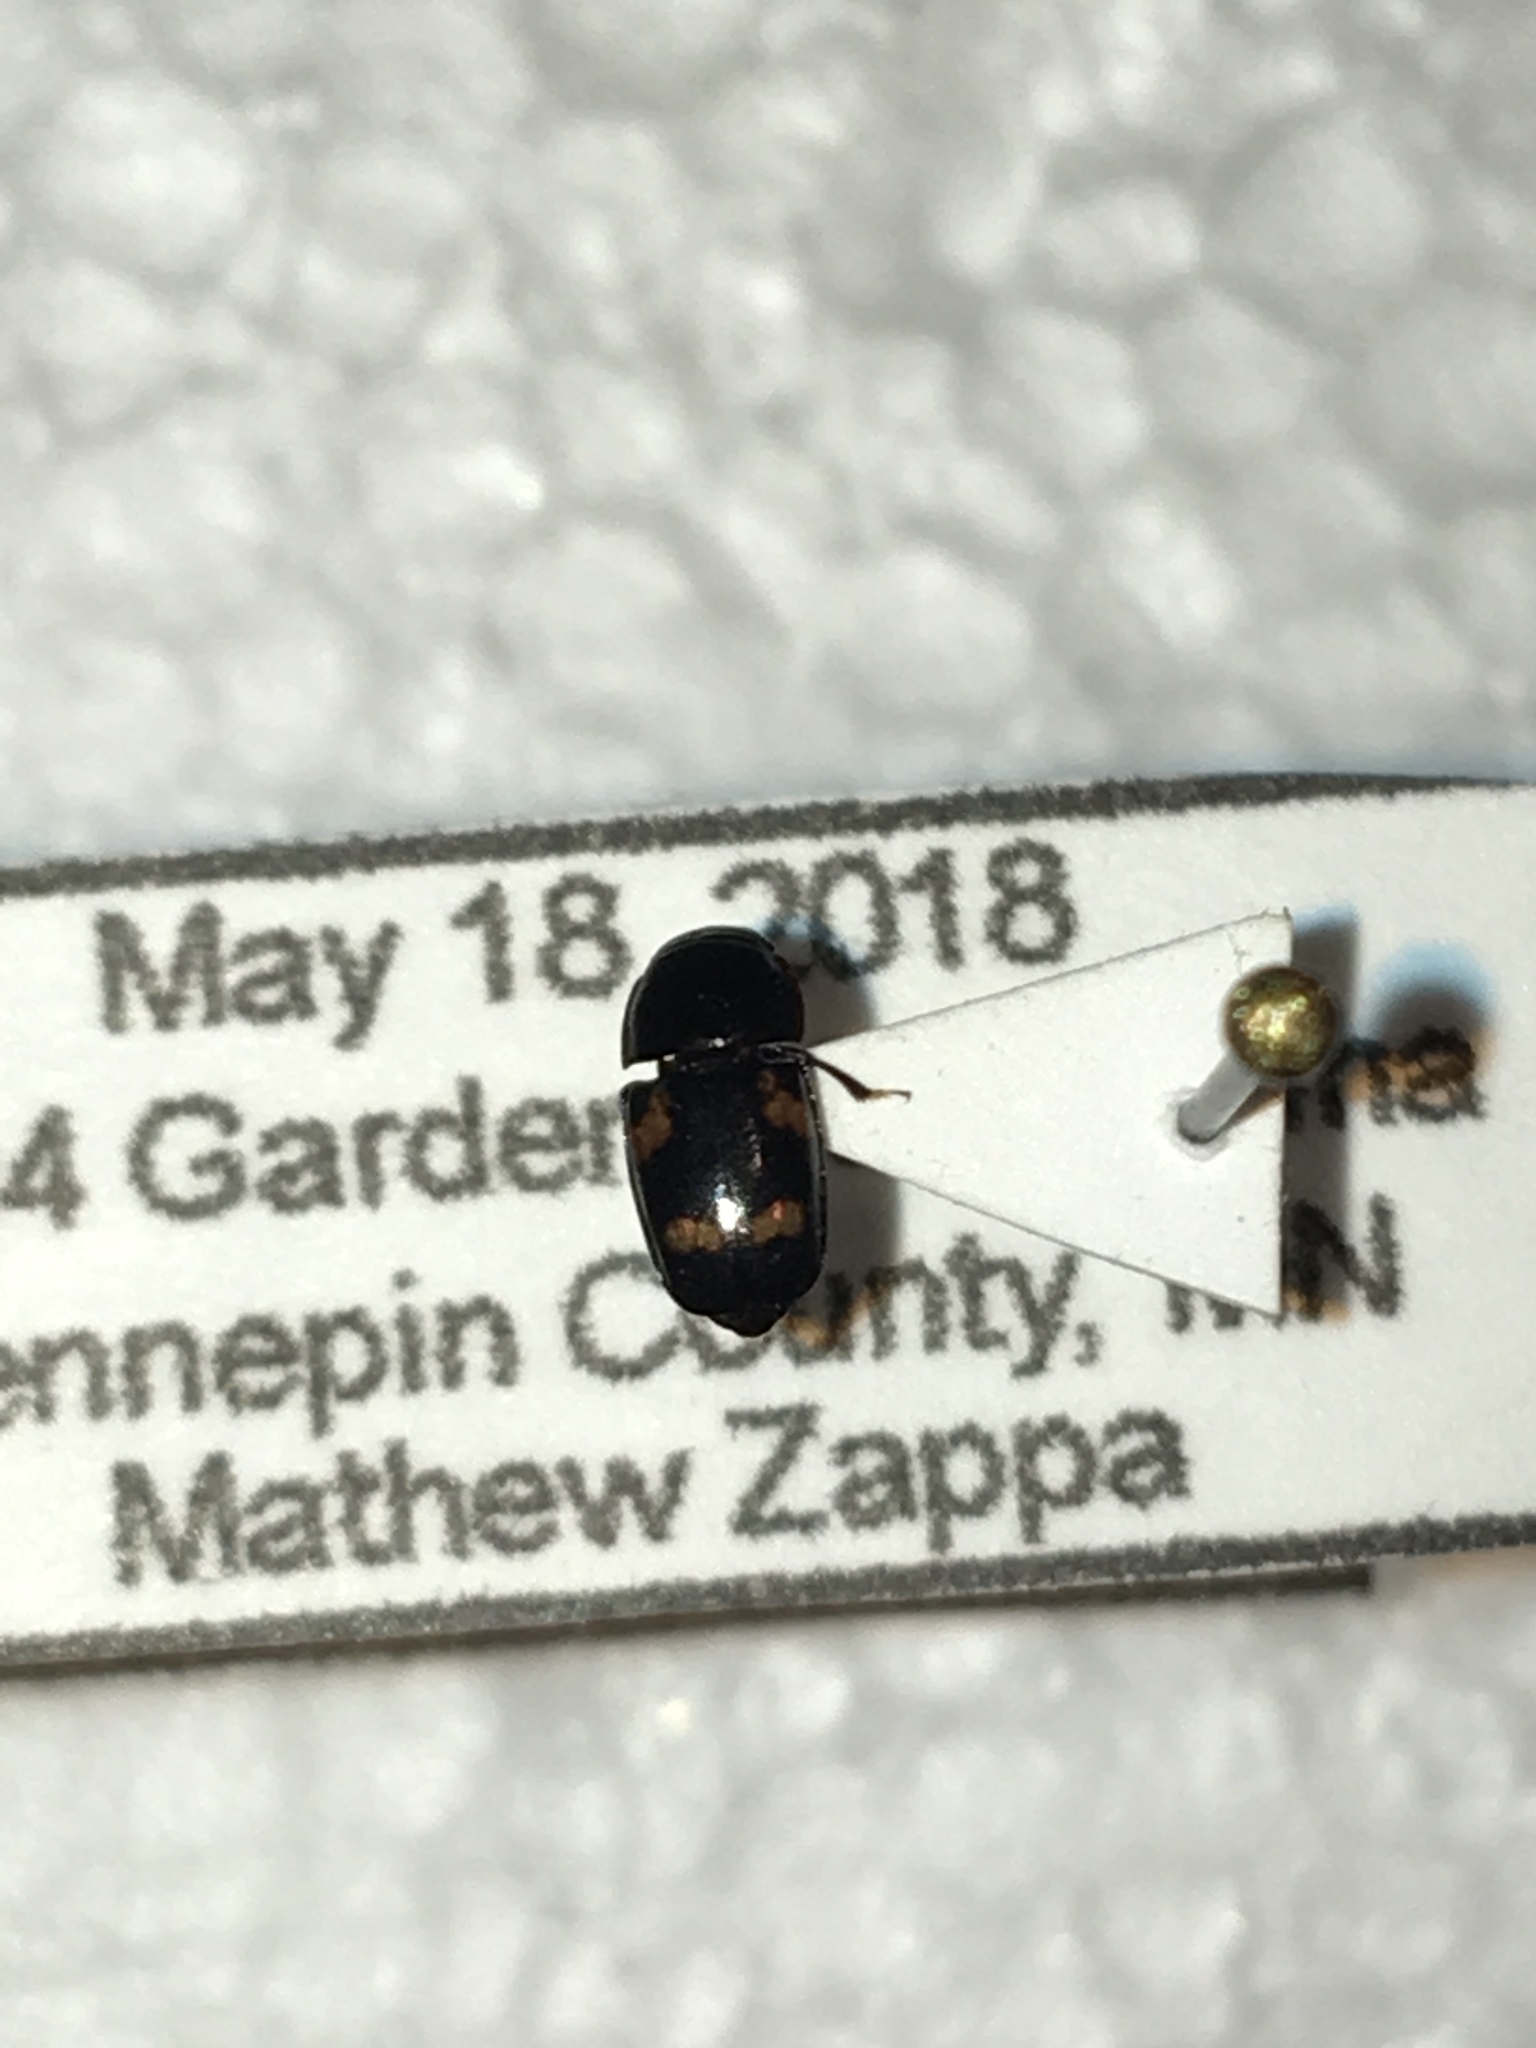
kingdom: Animalia
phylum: Arthropoda
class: Insecta
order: Coleoptera
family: Nitidulidae
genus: Glischrochilus
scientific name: Glischrochilus quadrisignatus
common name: Picnic beetle
